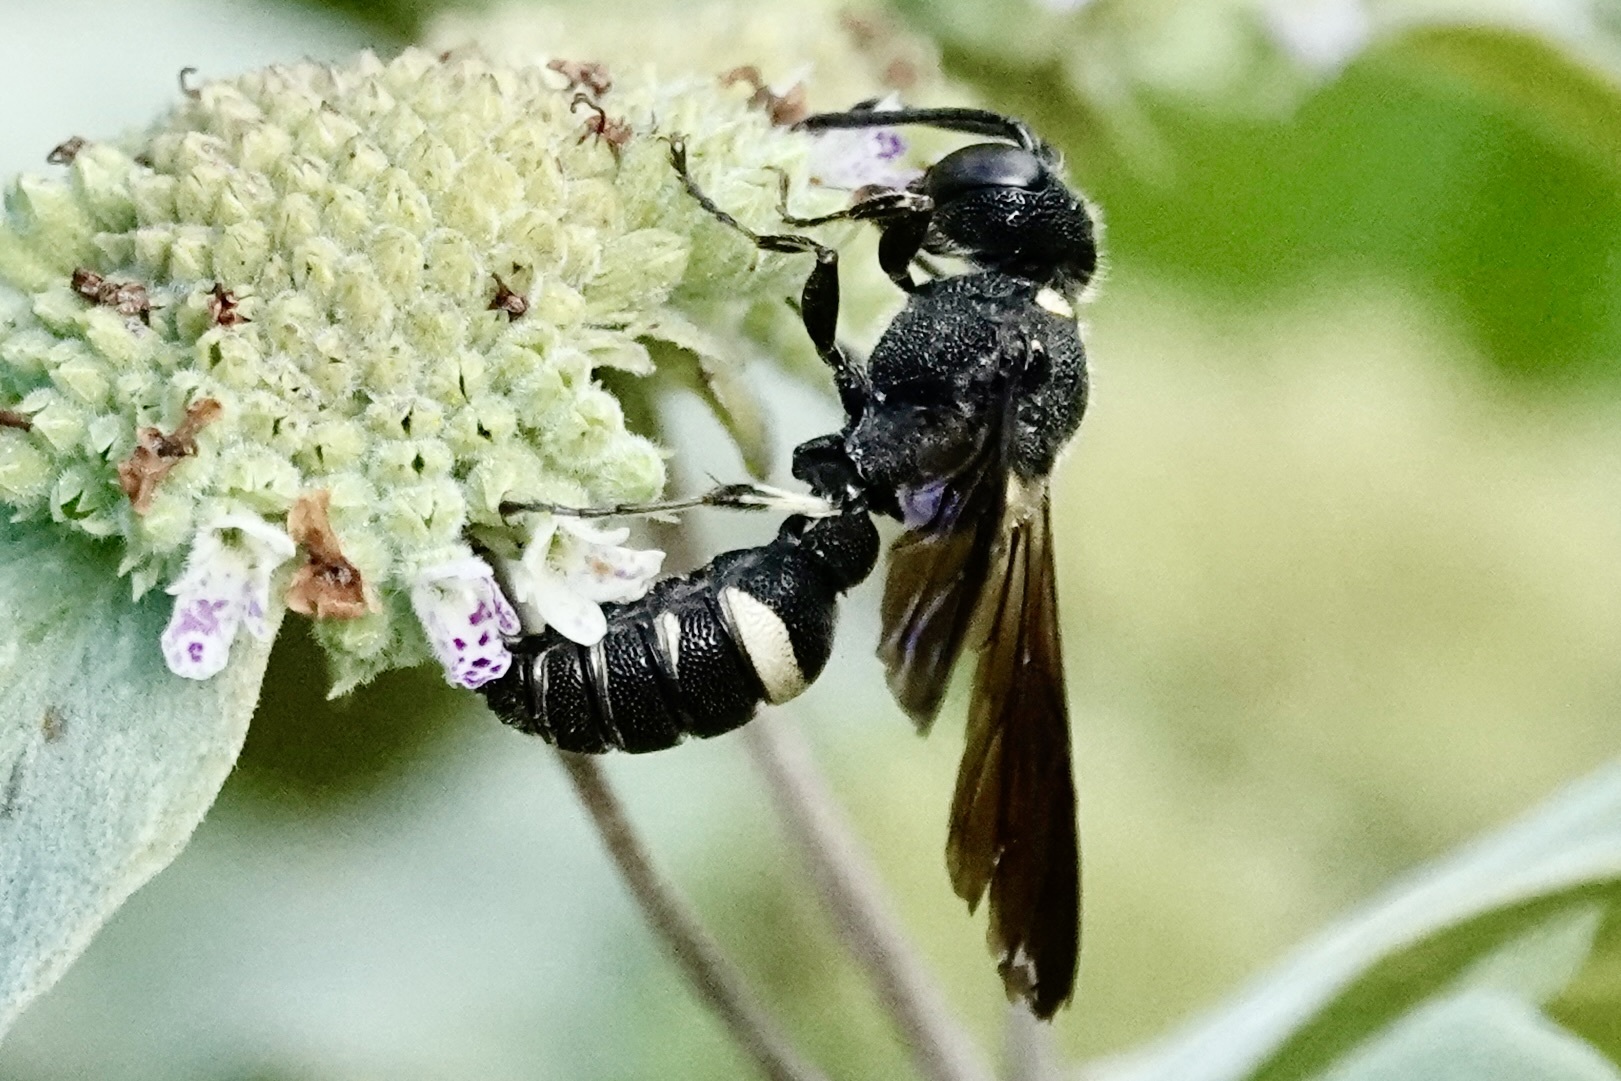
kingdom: Animalia
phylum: Arthropoda
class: Insecta
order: Hymenoptera
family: Crabronidae
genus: Cerceris
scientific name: Cerceris fumipennis
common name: Smokey-winged beetle bandit wasp
